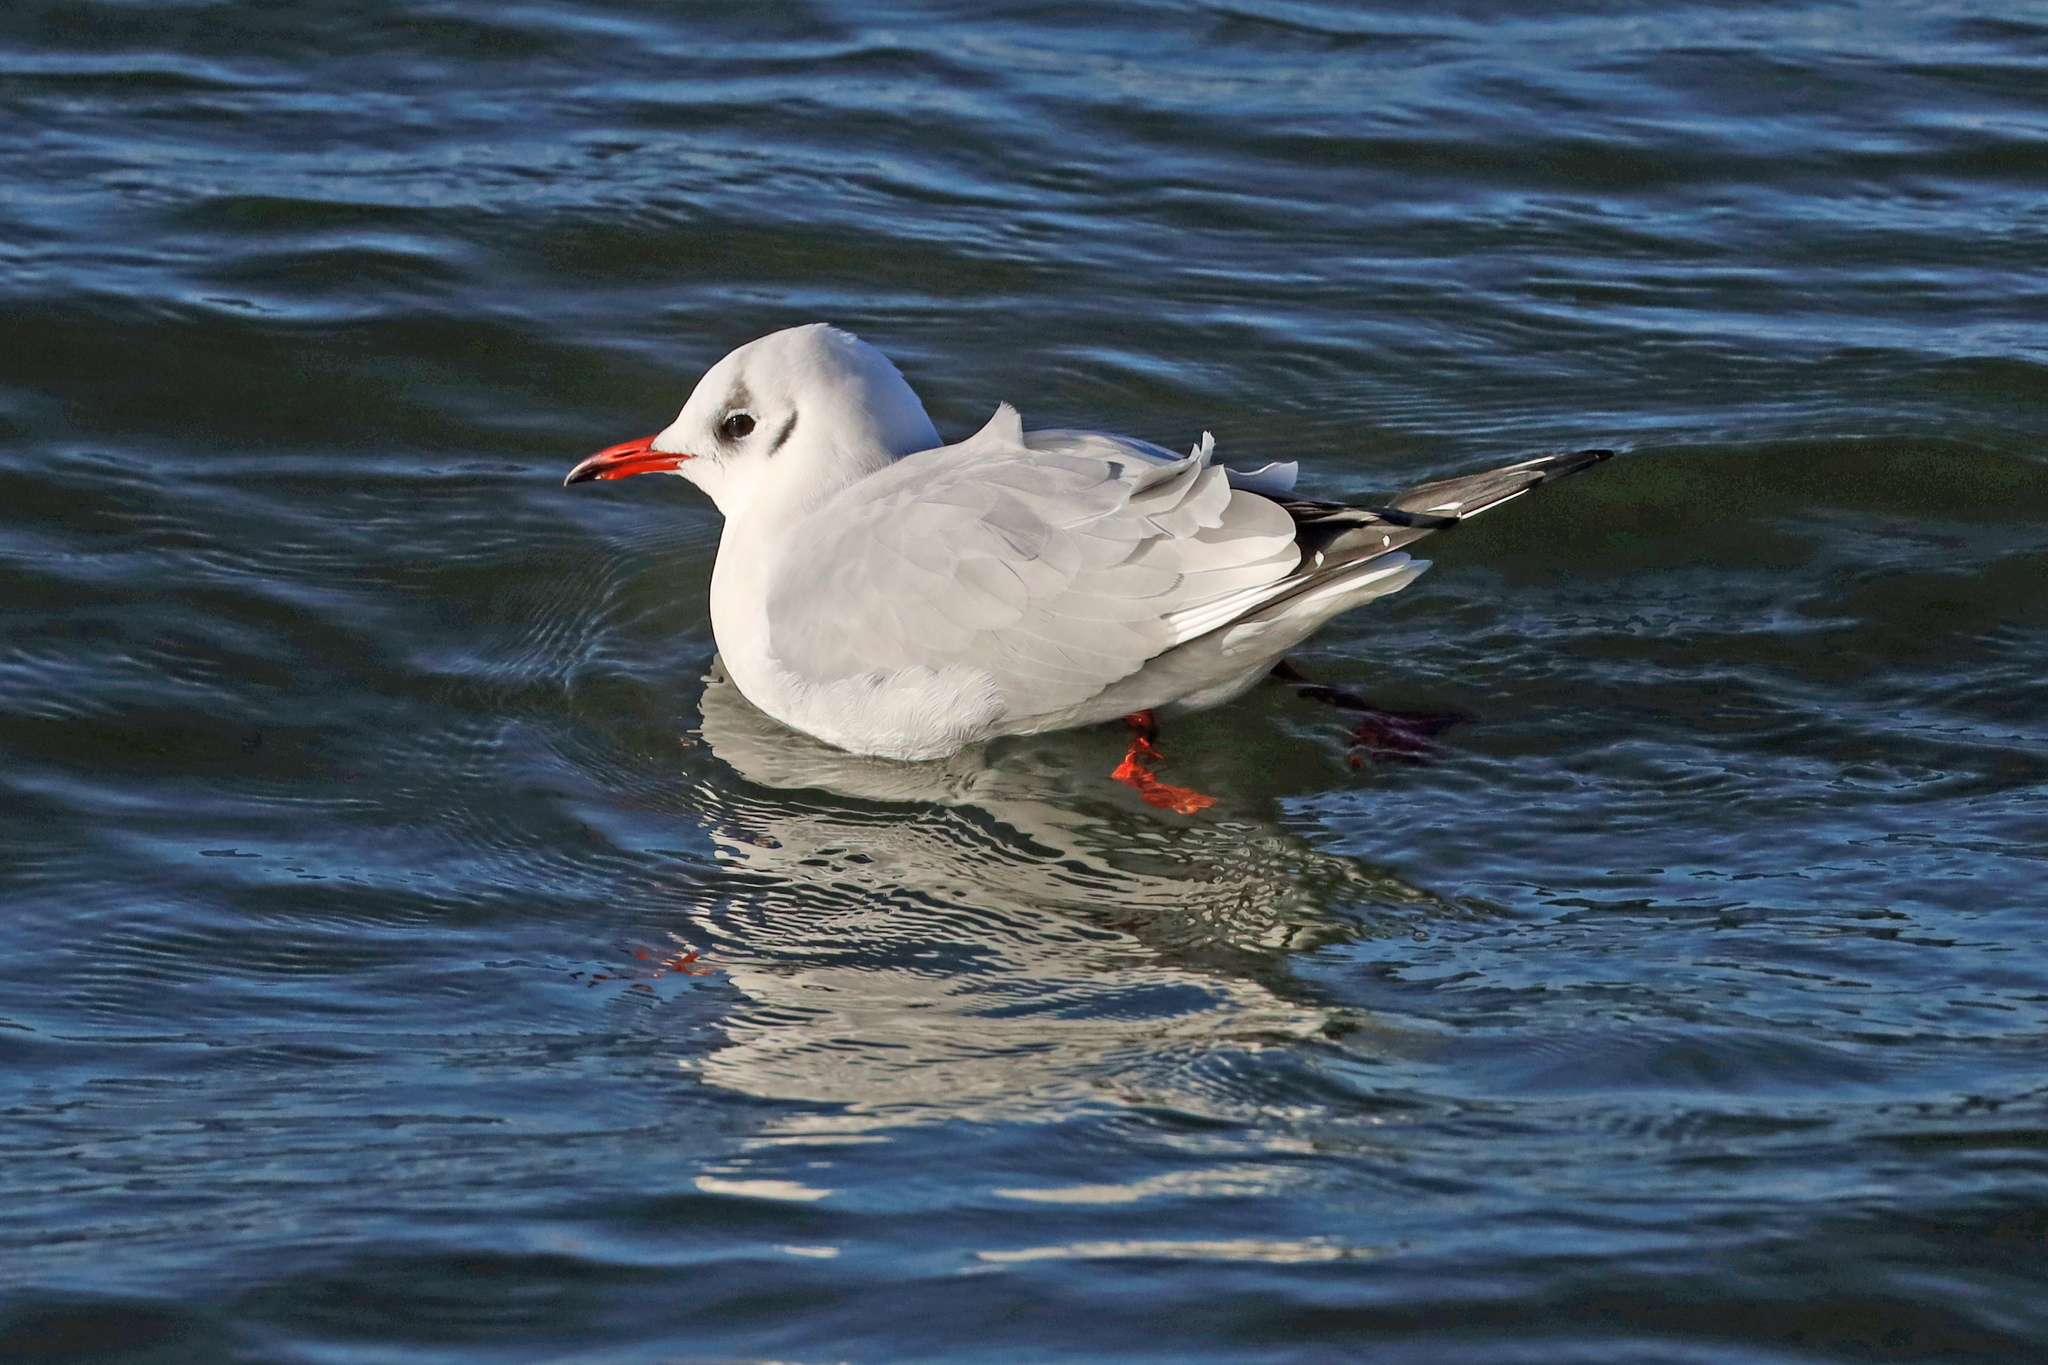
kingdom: Animalia
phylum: Chordata
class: Aves
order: Charadriiformes
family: Laridae
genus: Chroicocephalus
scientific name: Chroicocephalus ridibundus
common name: Black-headed gull
